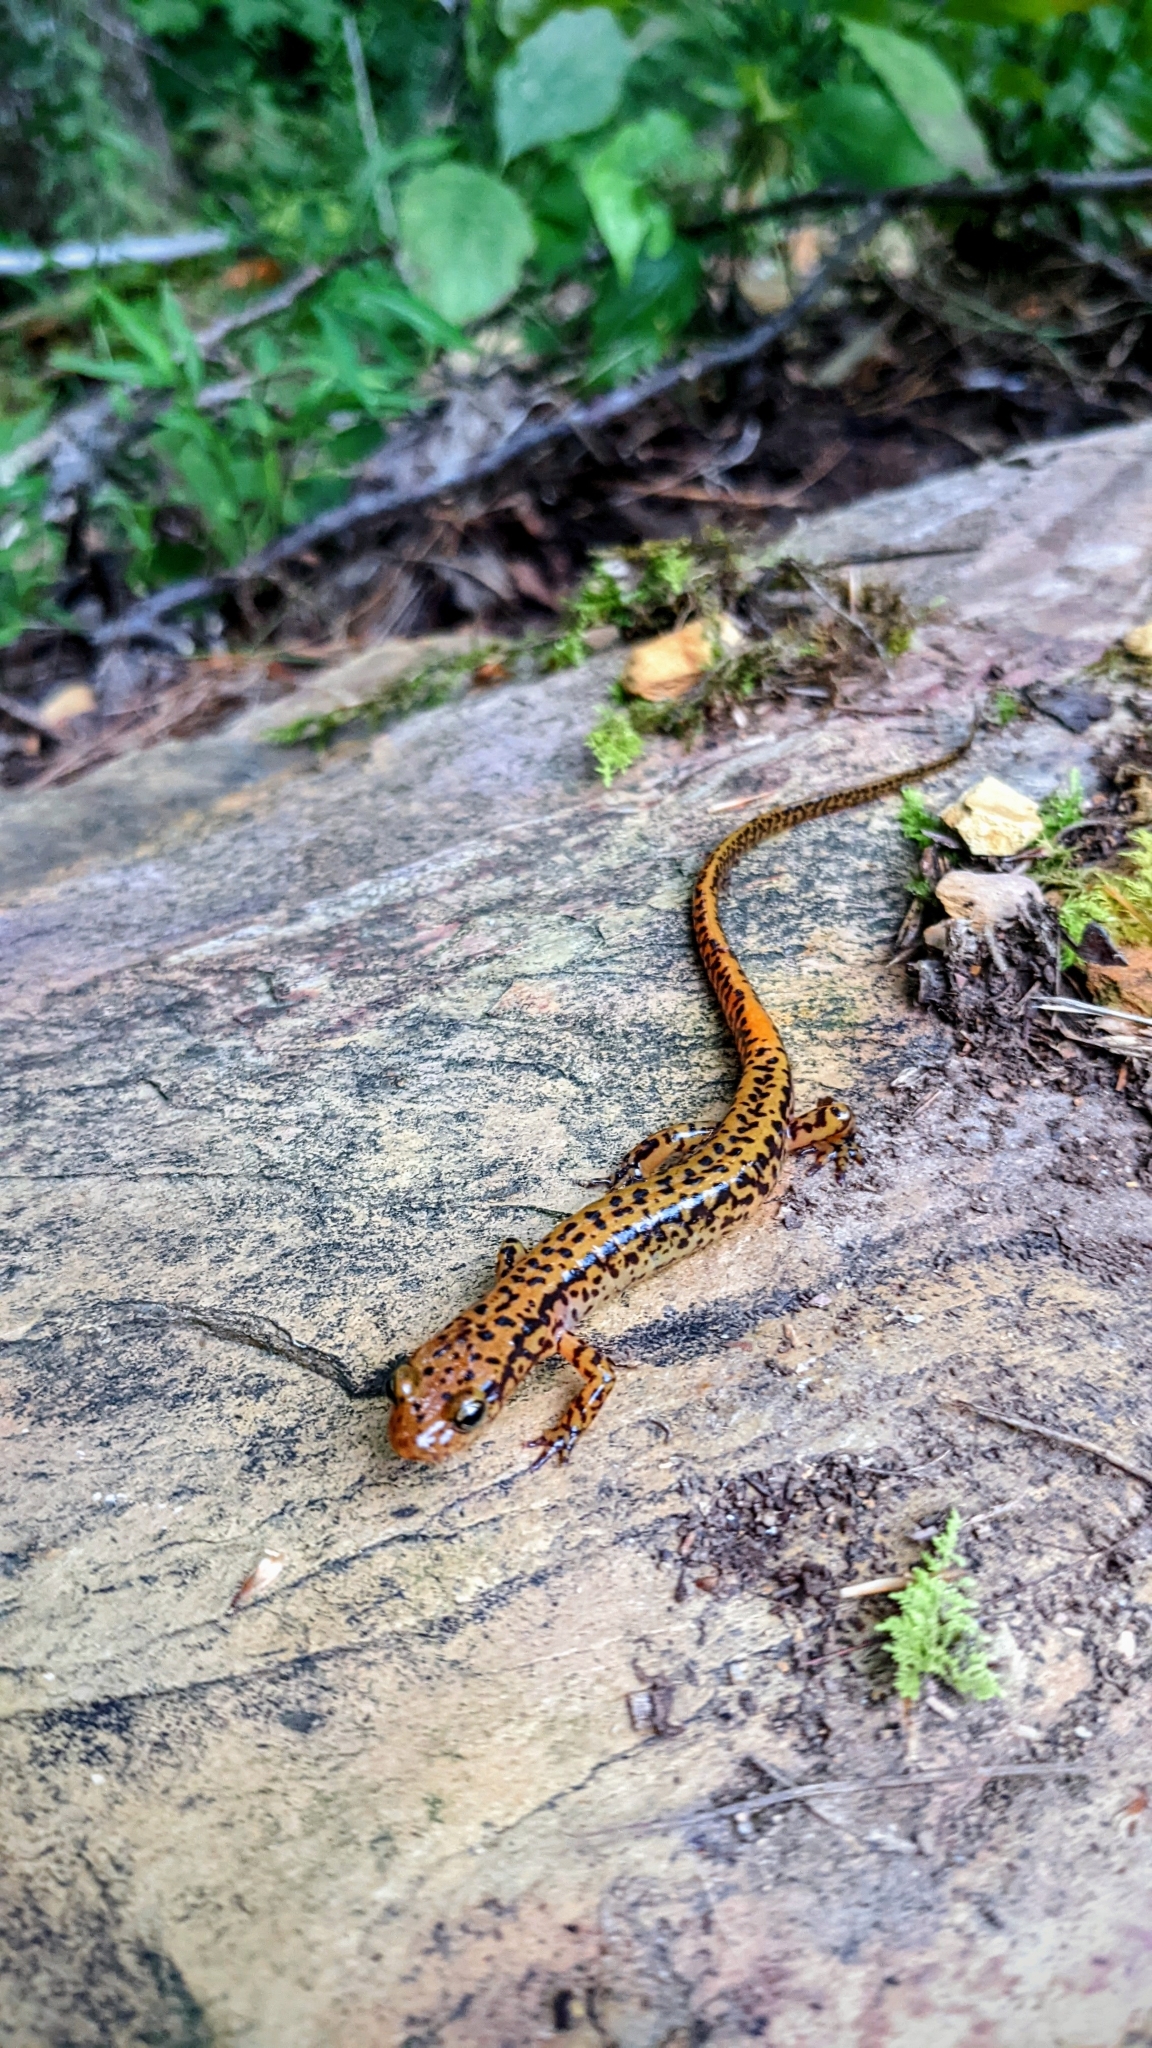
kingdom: Animalia
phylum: Chordata
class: Amphibia
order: Caudata
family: Plethodontidae
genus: Eurycea
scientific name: Eurycea longicauda
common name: Long-tailed salamander
